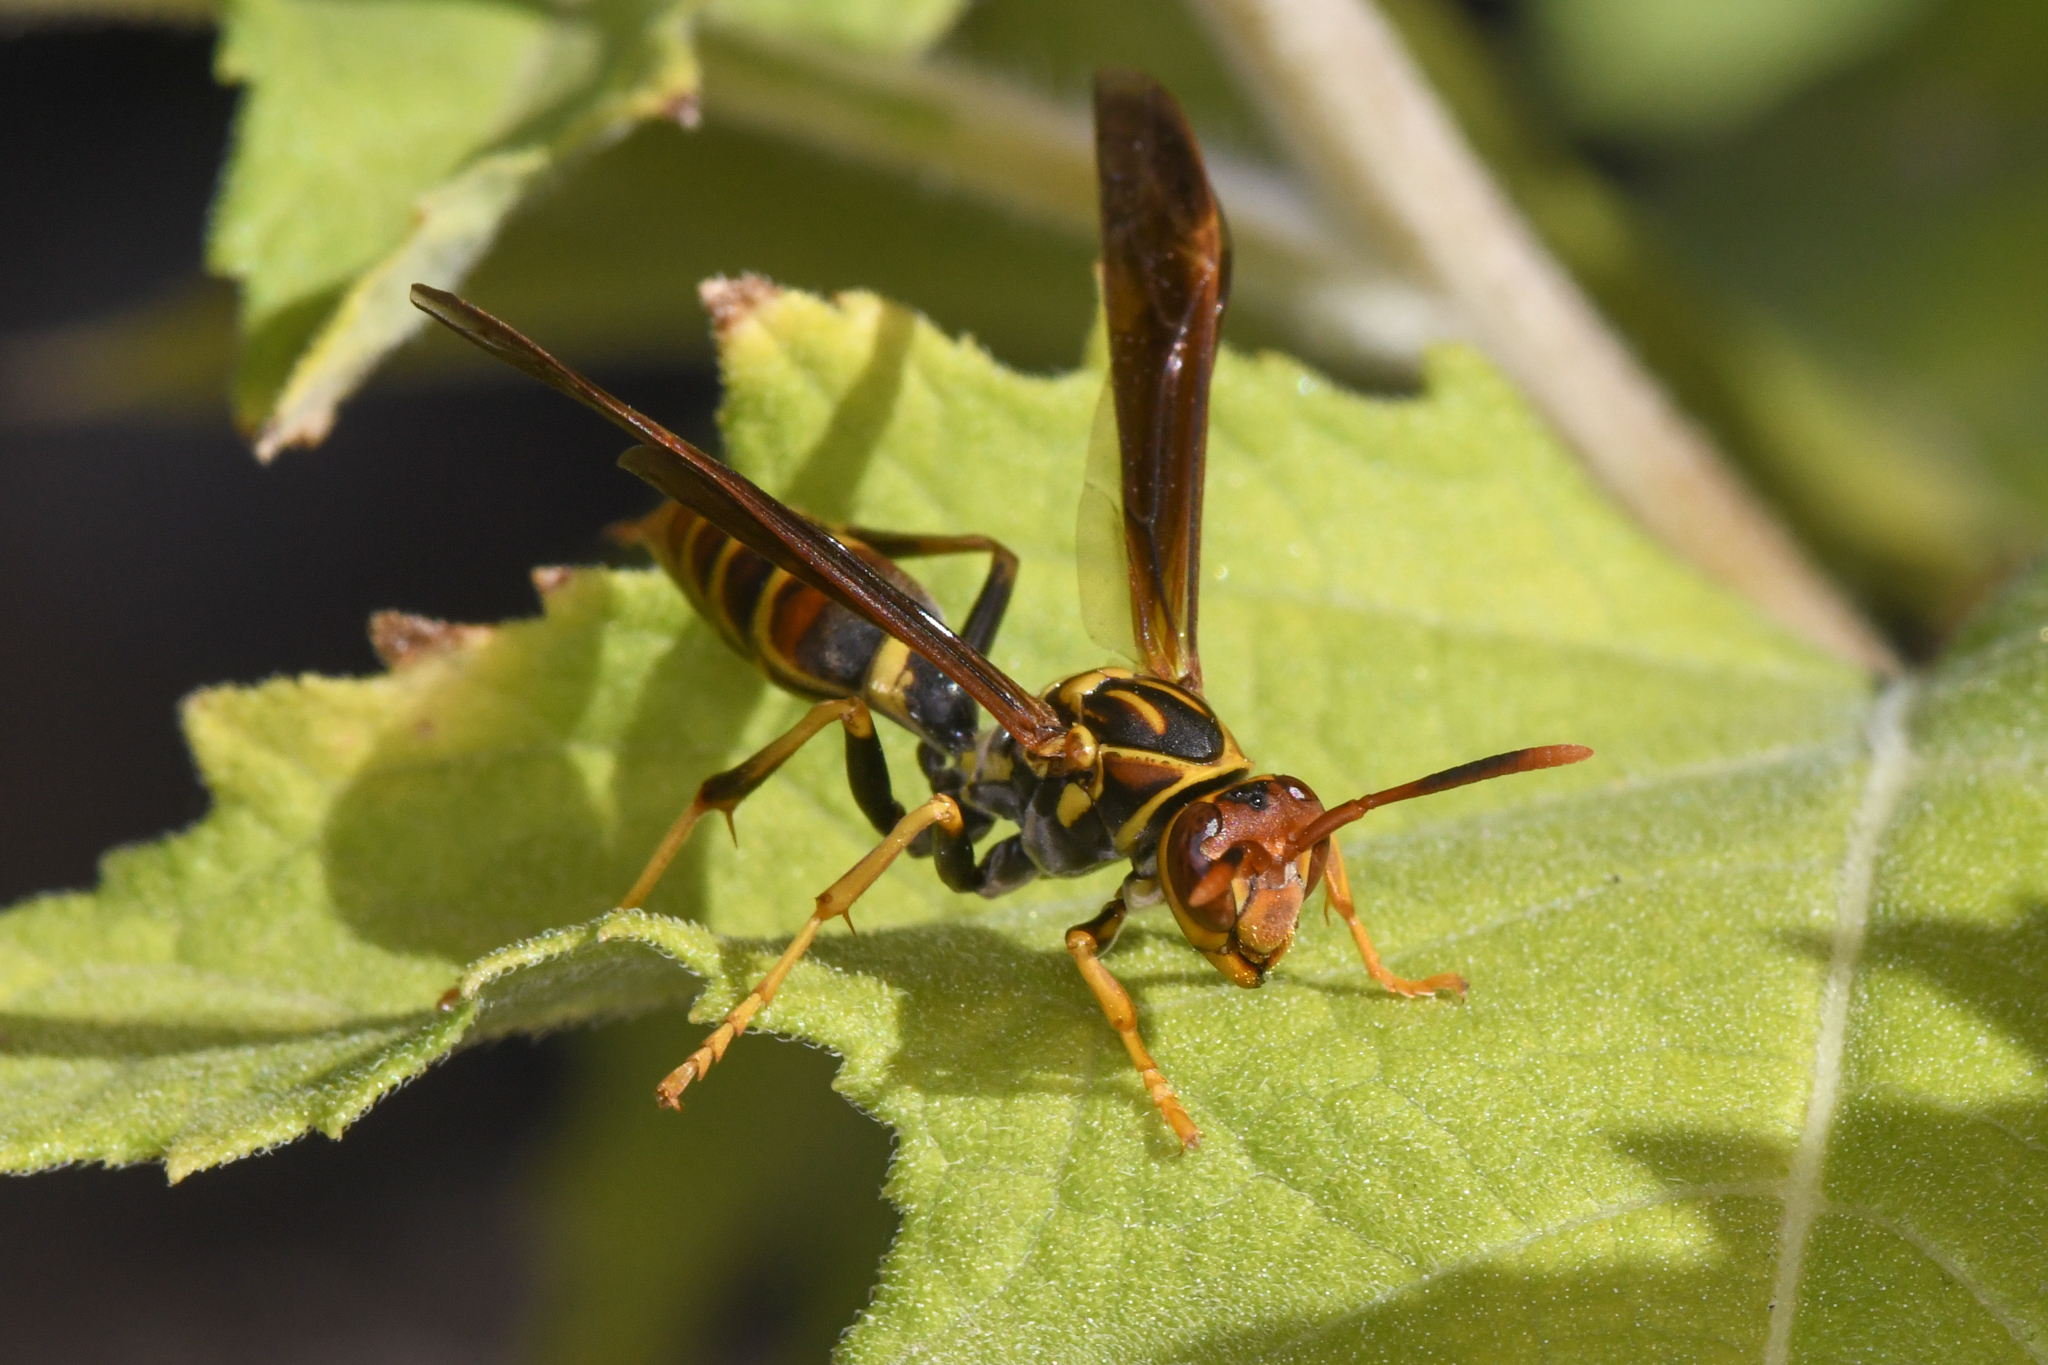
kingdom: Animalia
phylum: Arthropoda
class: Insecta
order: Hymenoptera
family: Eumenidae
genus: Polistes
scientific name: Polistes lineonotus
